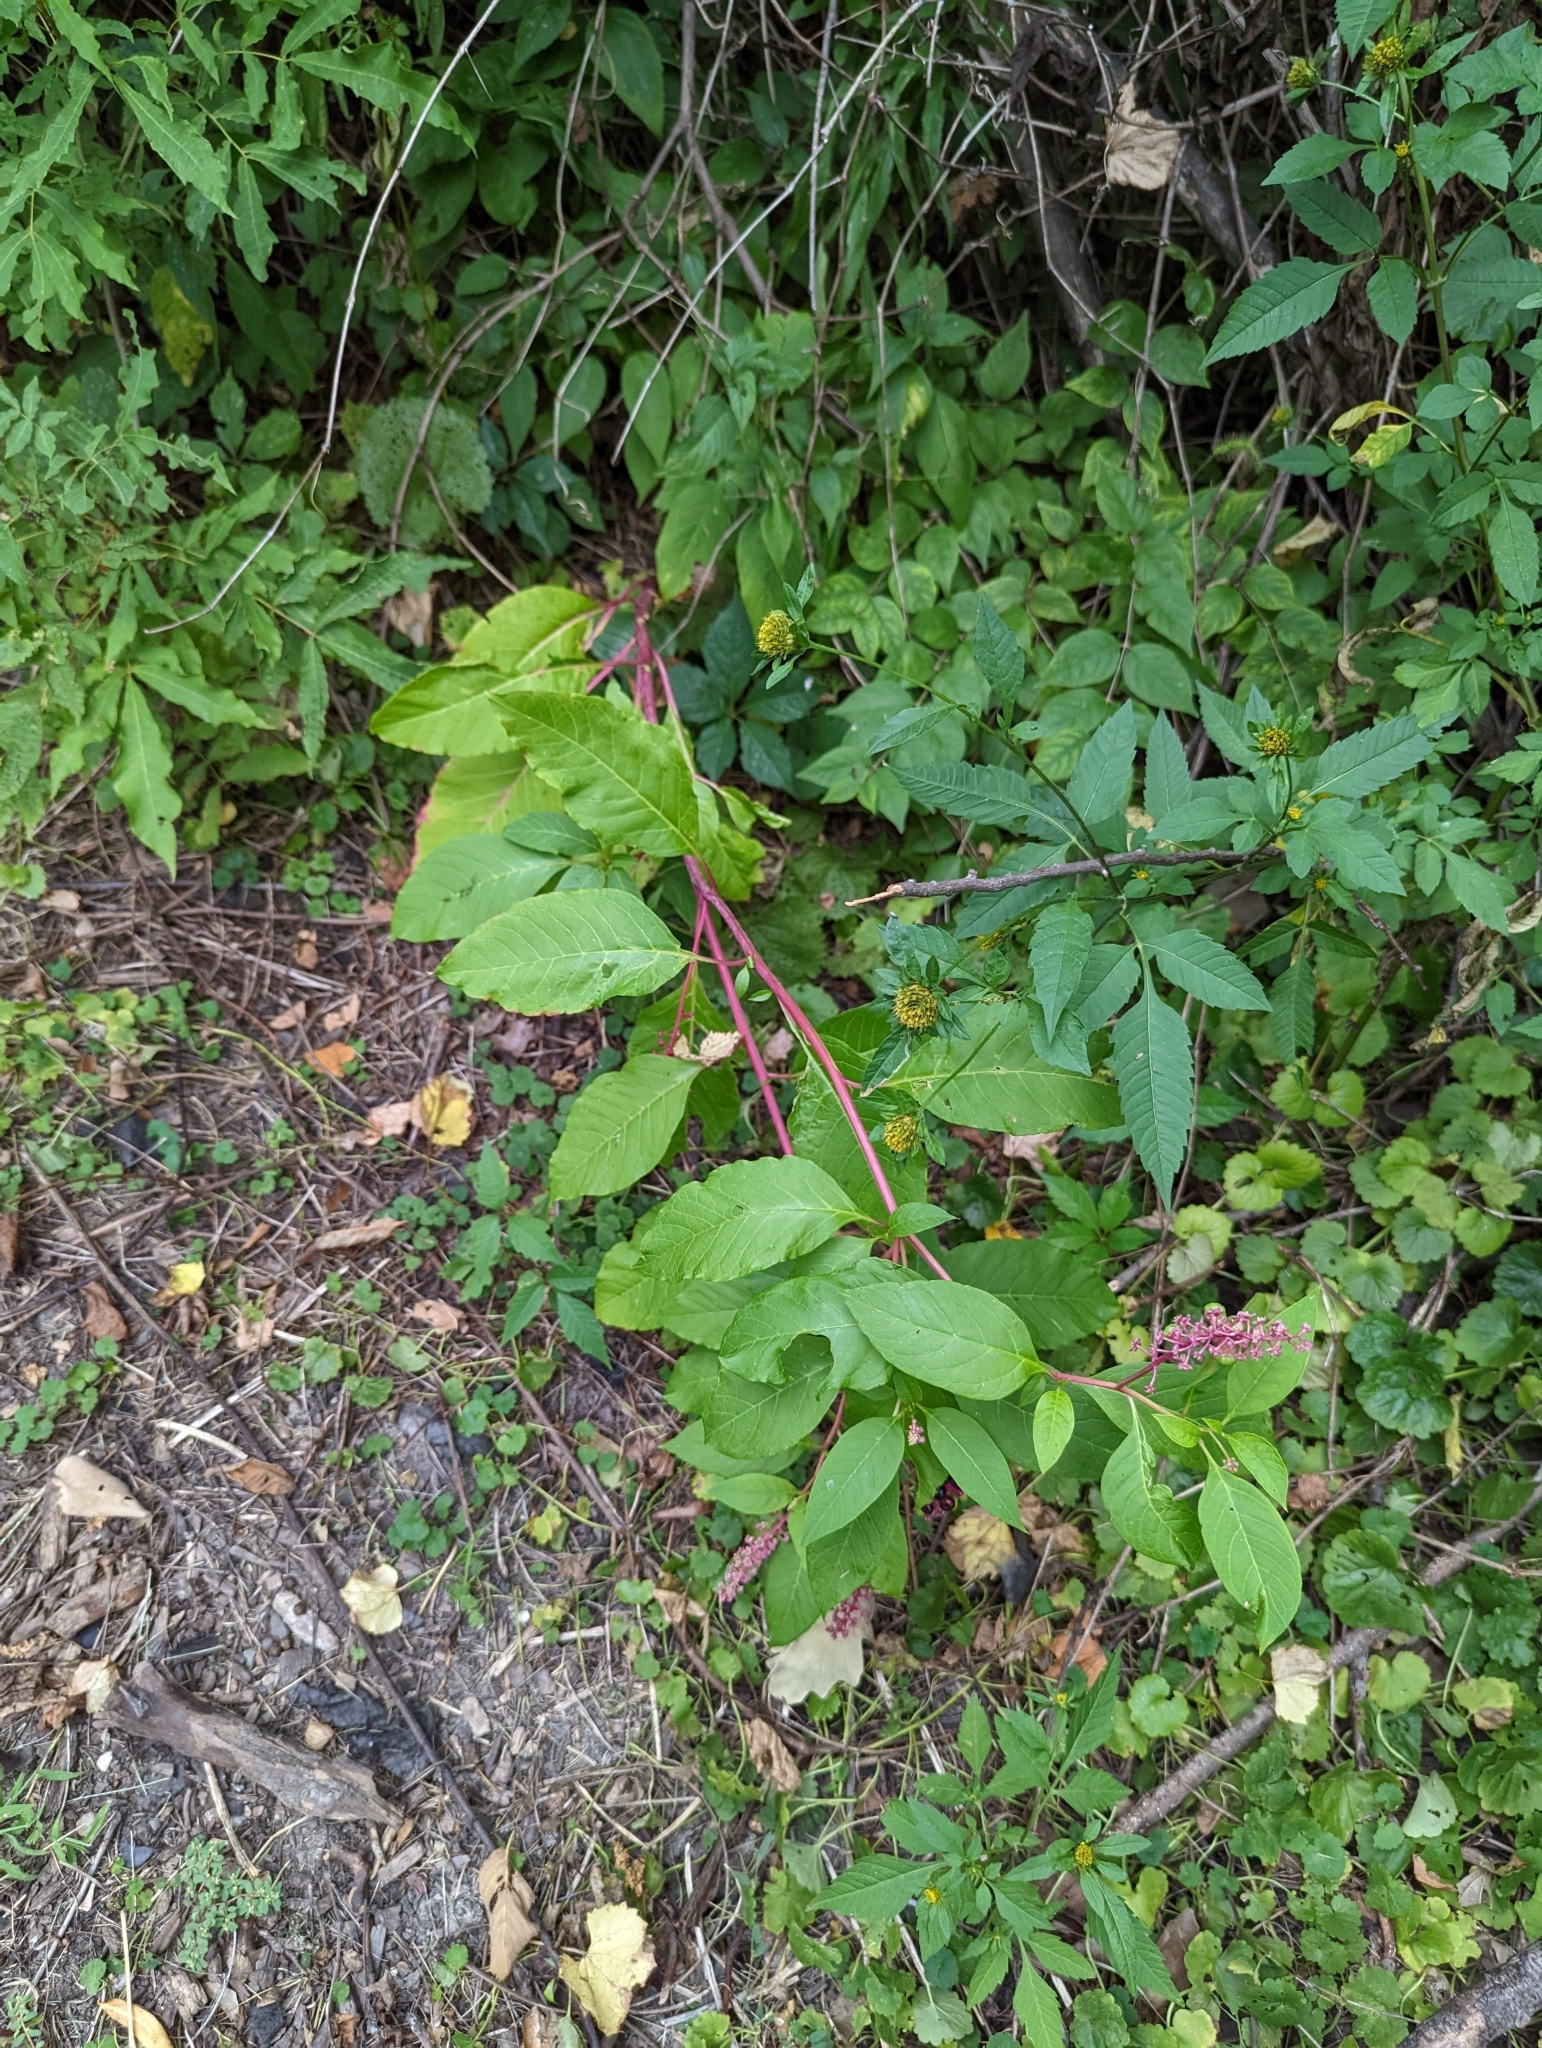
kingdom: Plantae
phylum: Tracheophyta
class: Magnoliopsida
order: Caryophyllales
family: Phytolaccaceae
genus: Phytolacca
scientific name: Phytolacca americana
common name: American pokeweed
